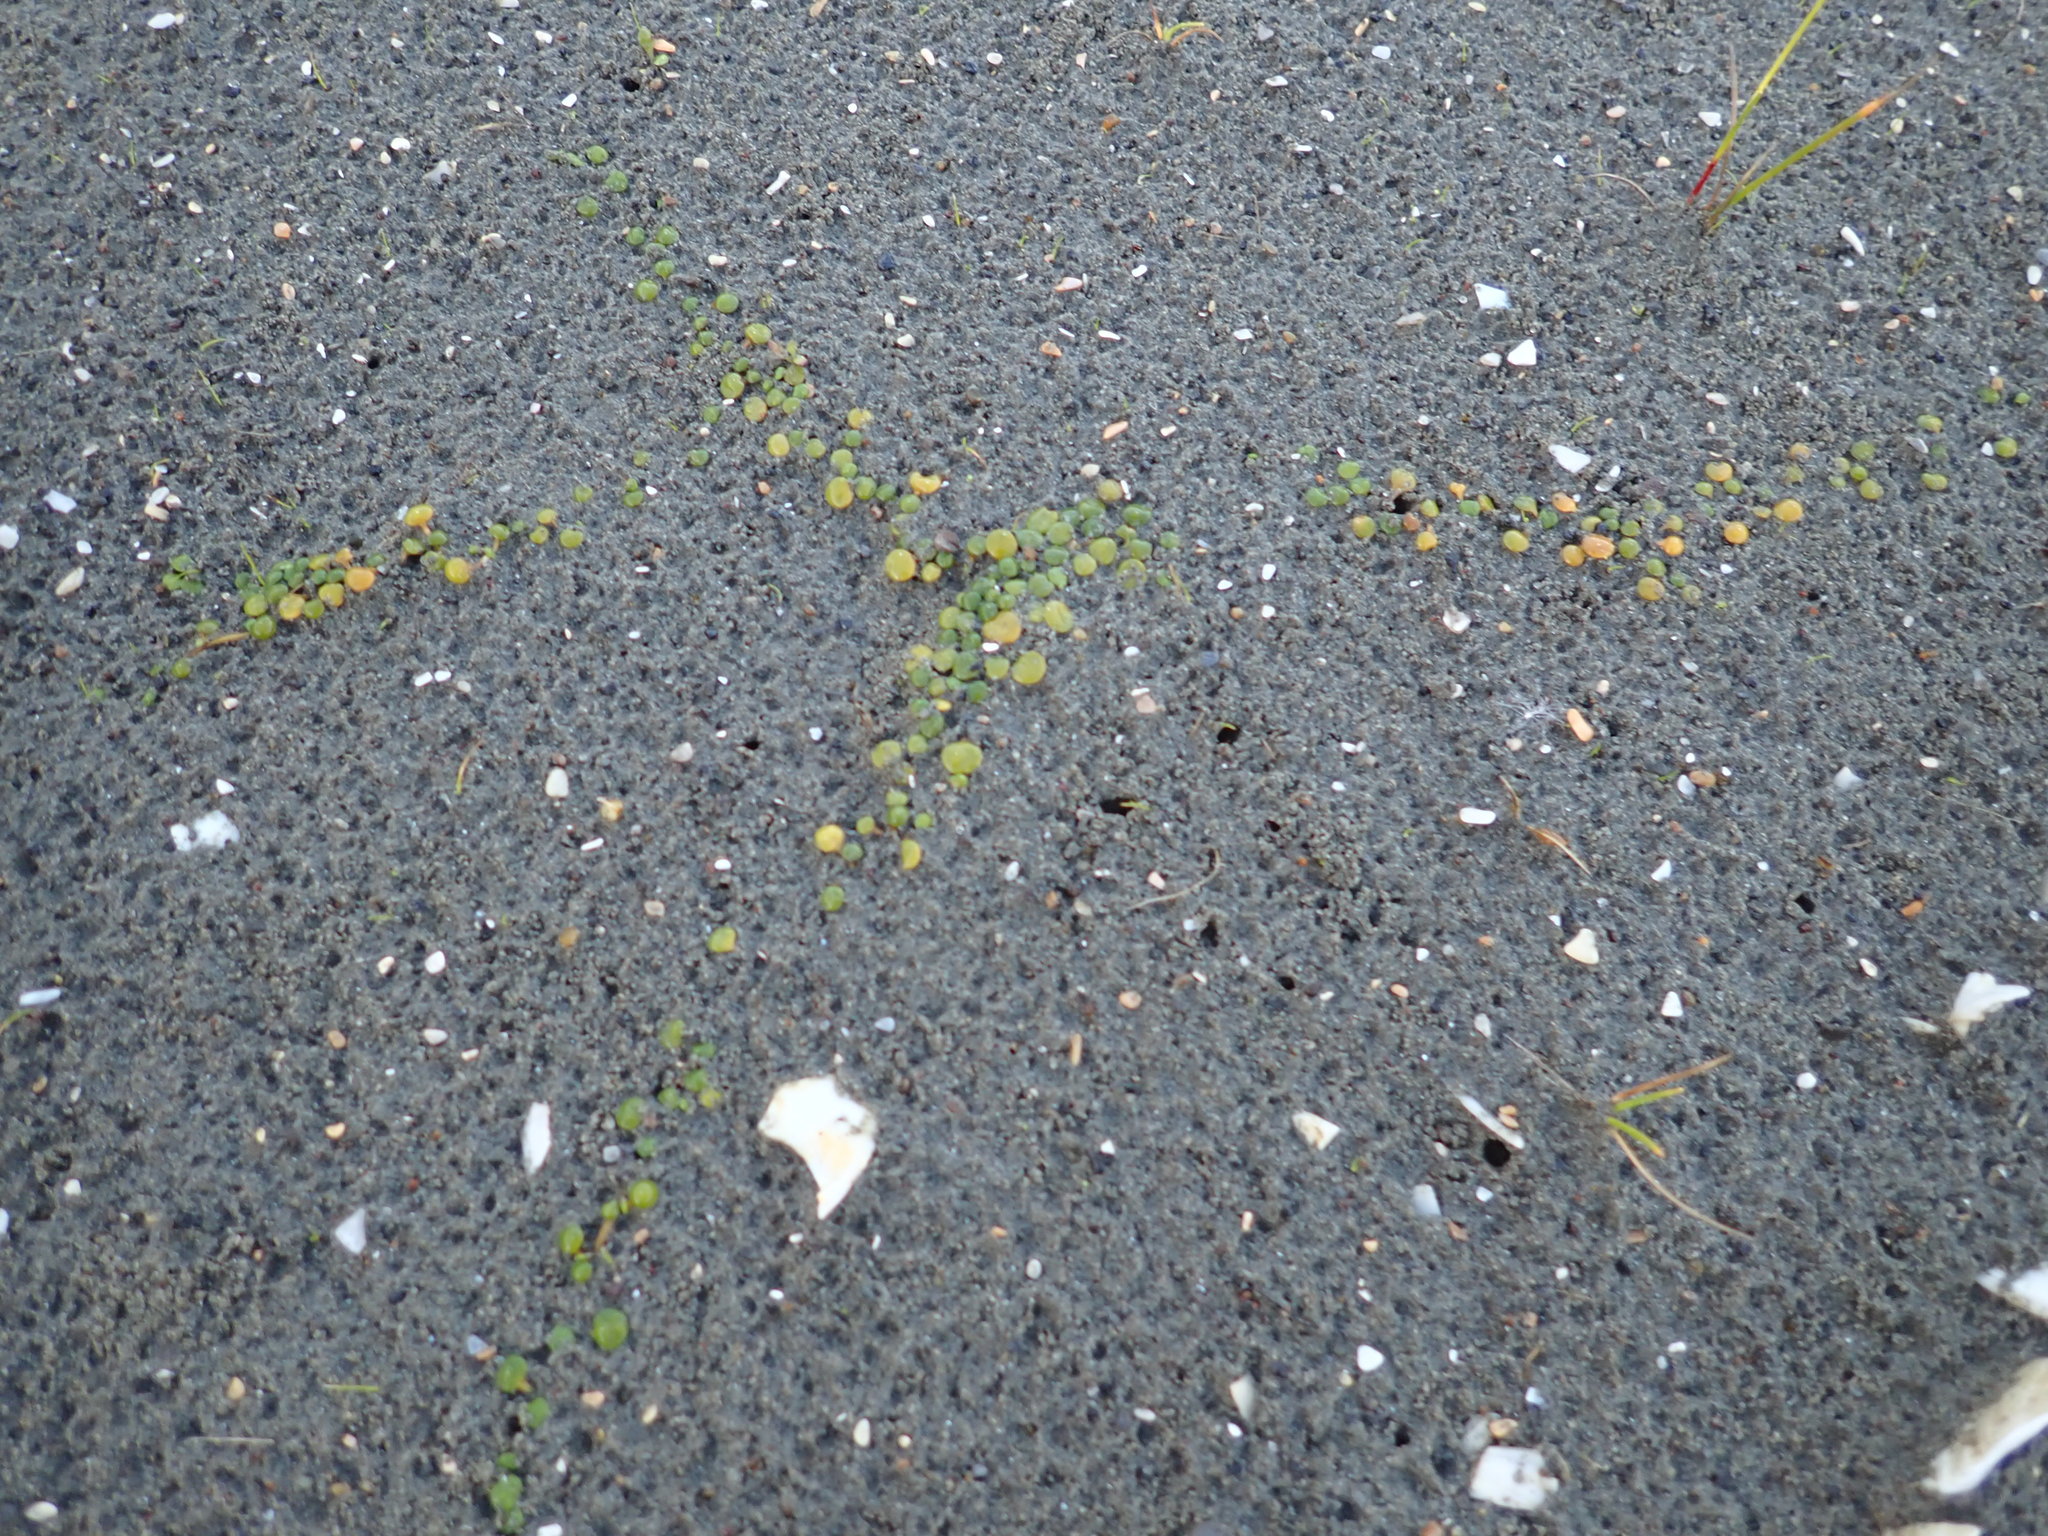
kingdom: Plantae
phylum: Tracheophyta
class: Magnoliopsida
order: Asterales
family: Goodeniaceae
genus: Goodenia
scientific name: Goodenia heenanii
